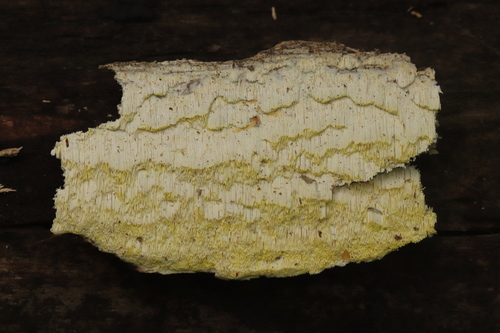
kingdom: Fungi
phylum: Basidiomycota
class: Agaricomycetes
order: Polyporales
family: Fomitopsidaceae
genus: Daedalea
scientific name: Daedalea xantha
